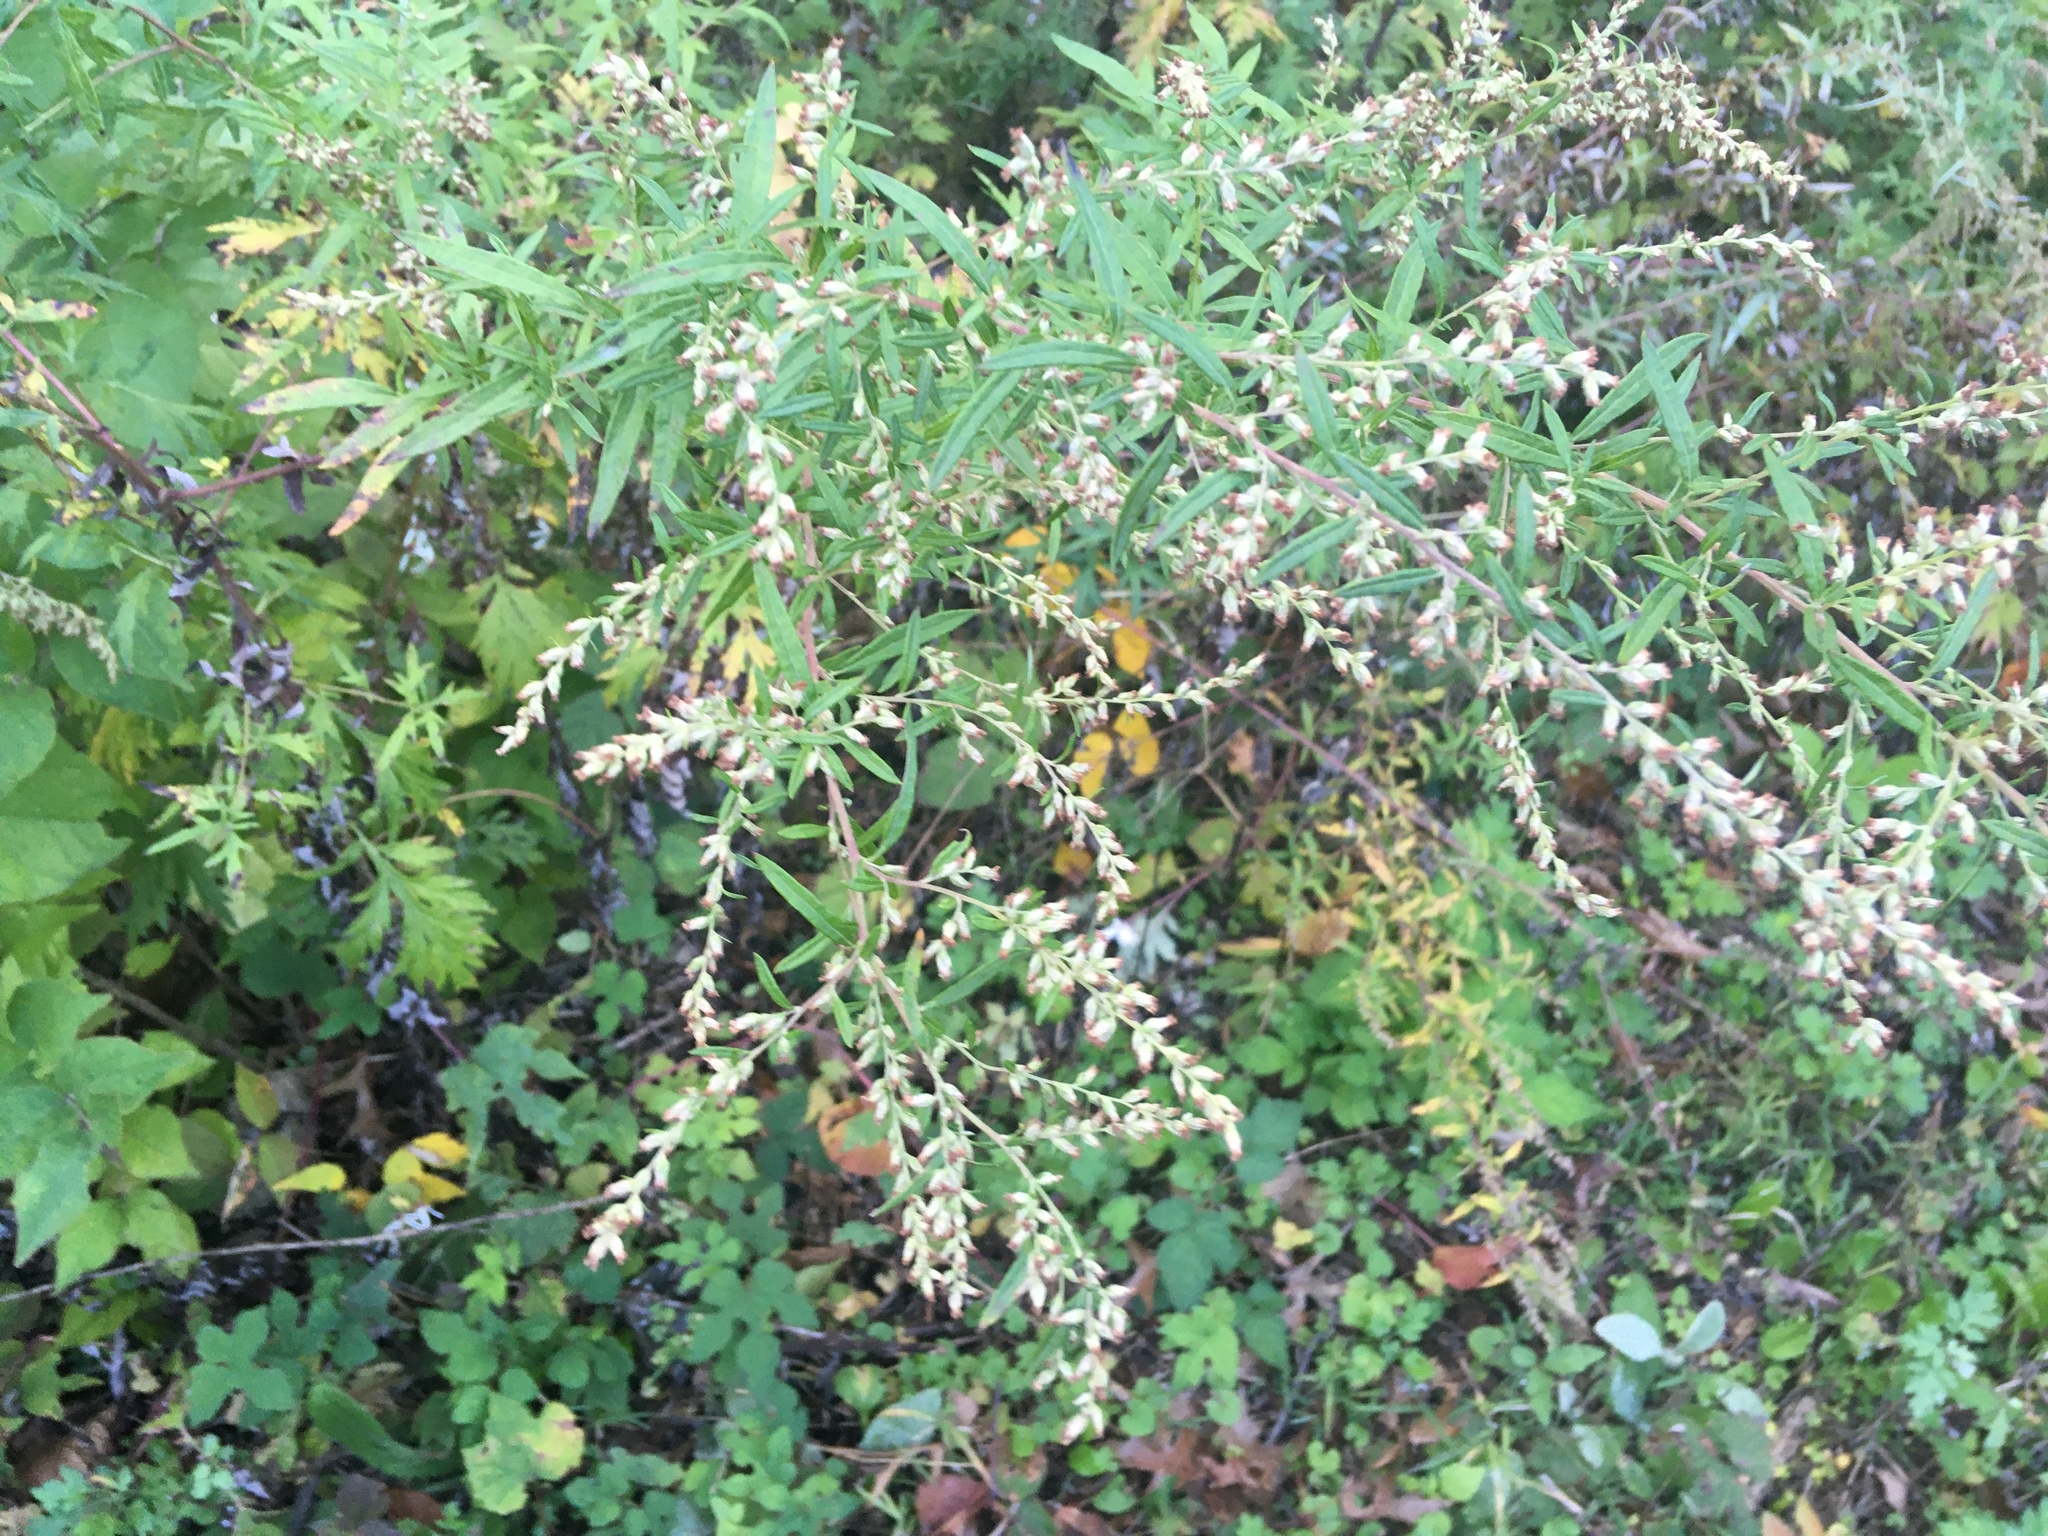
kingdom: Plantae
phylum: Tracheophyta
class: Magnoliopsida
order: Asterales
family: Asteraceae
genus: Artemisia
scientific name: Artemisia vulgaris
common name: Mugwort
